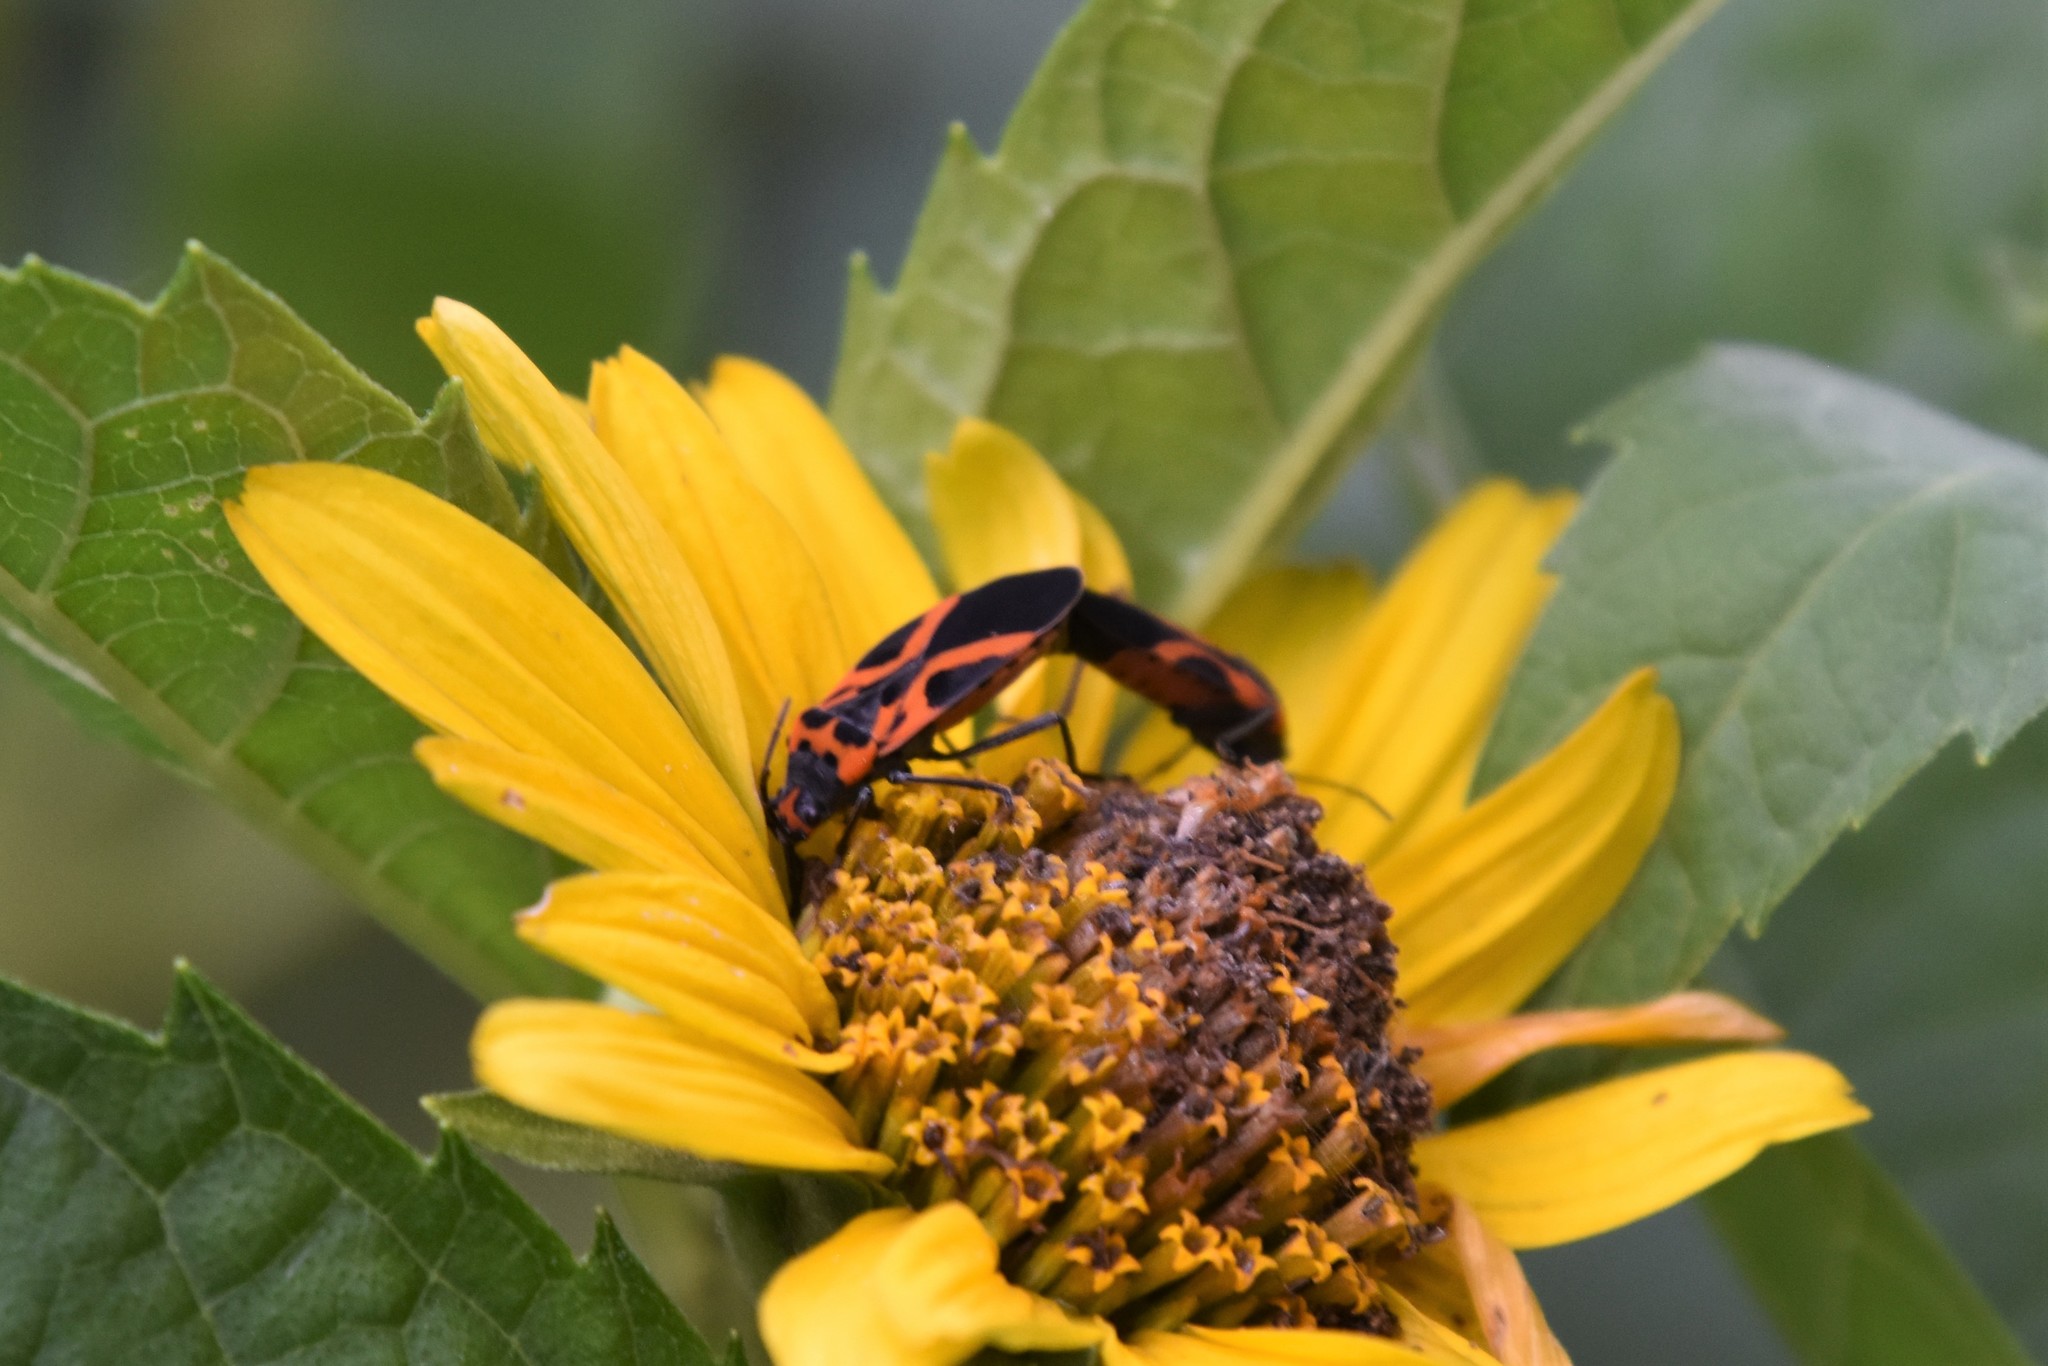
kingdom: Animalia
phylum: Arthropoda
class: Insecta
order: Hemiptera
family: Lygaeidae
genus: Lygaeus
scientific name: Lygaeus turcicus
